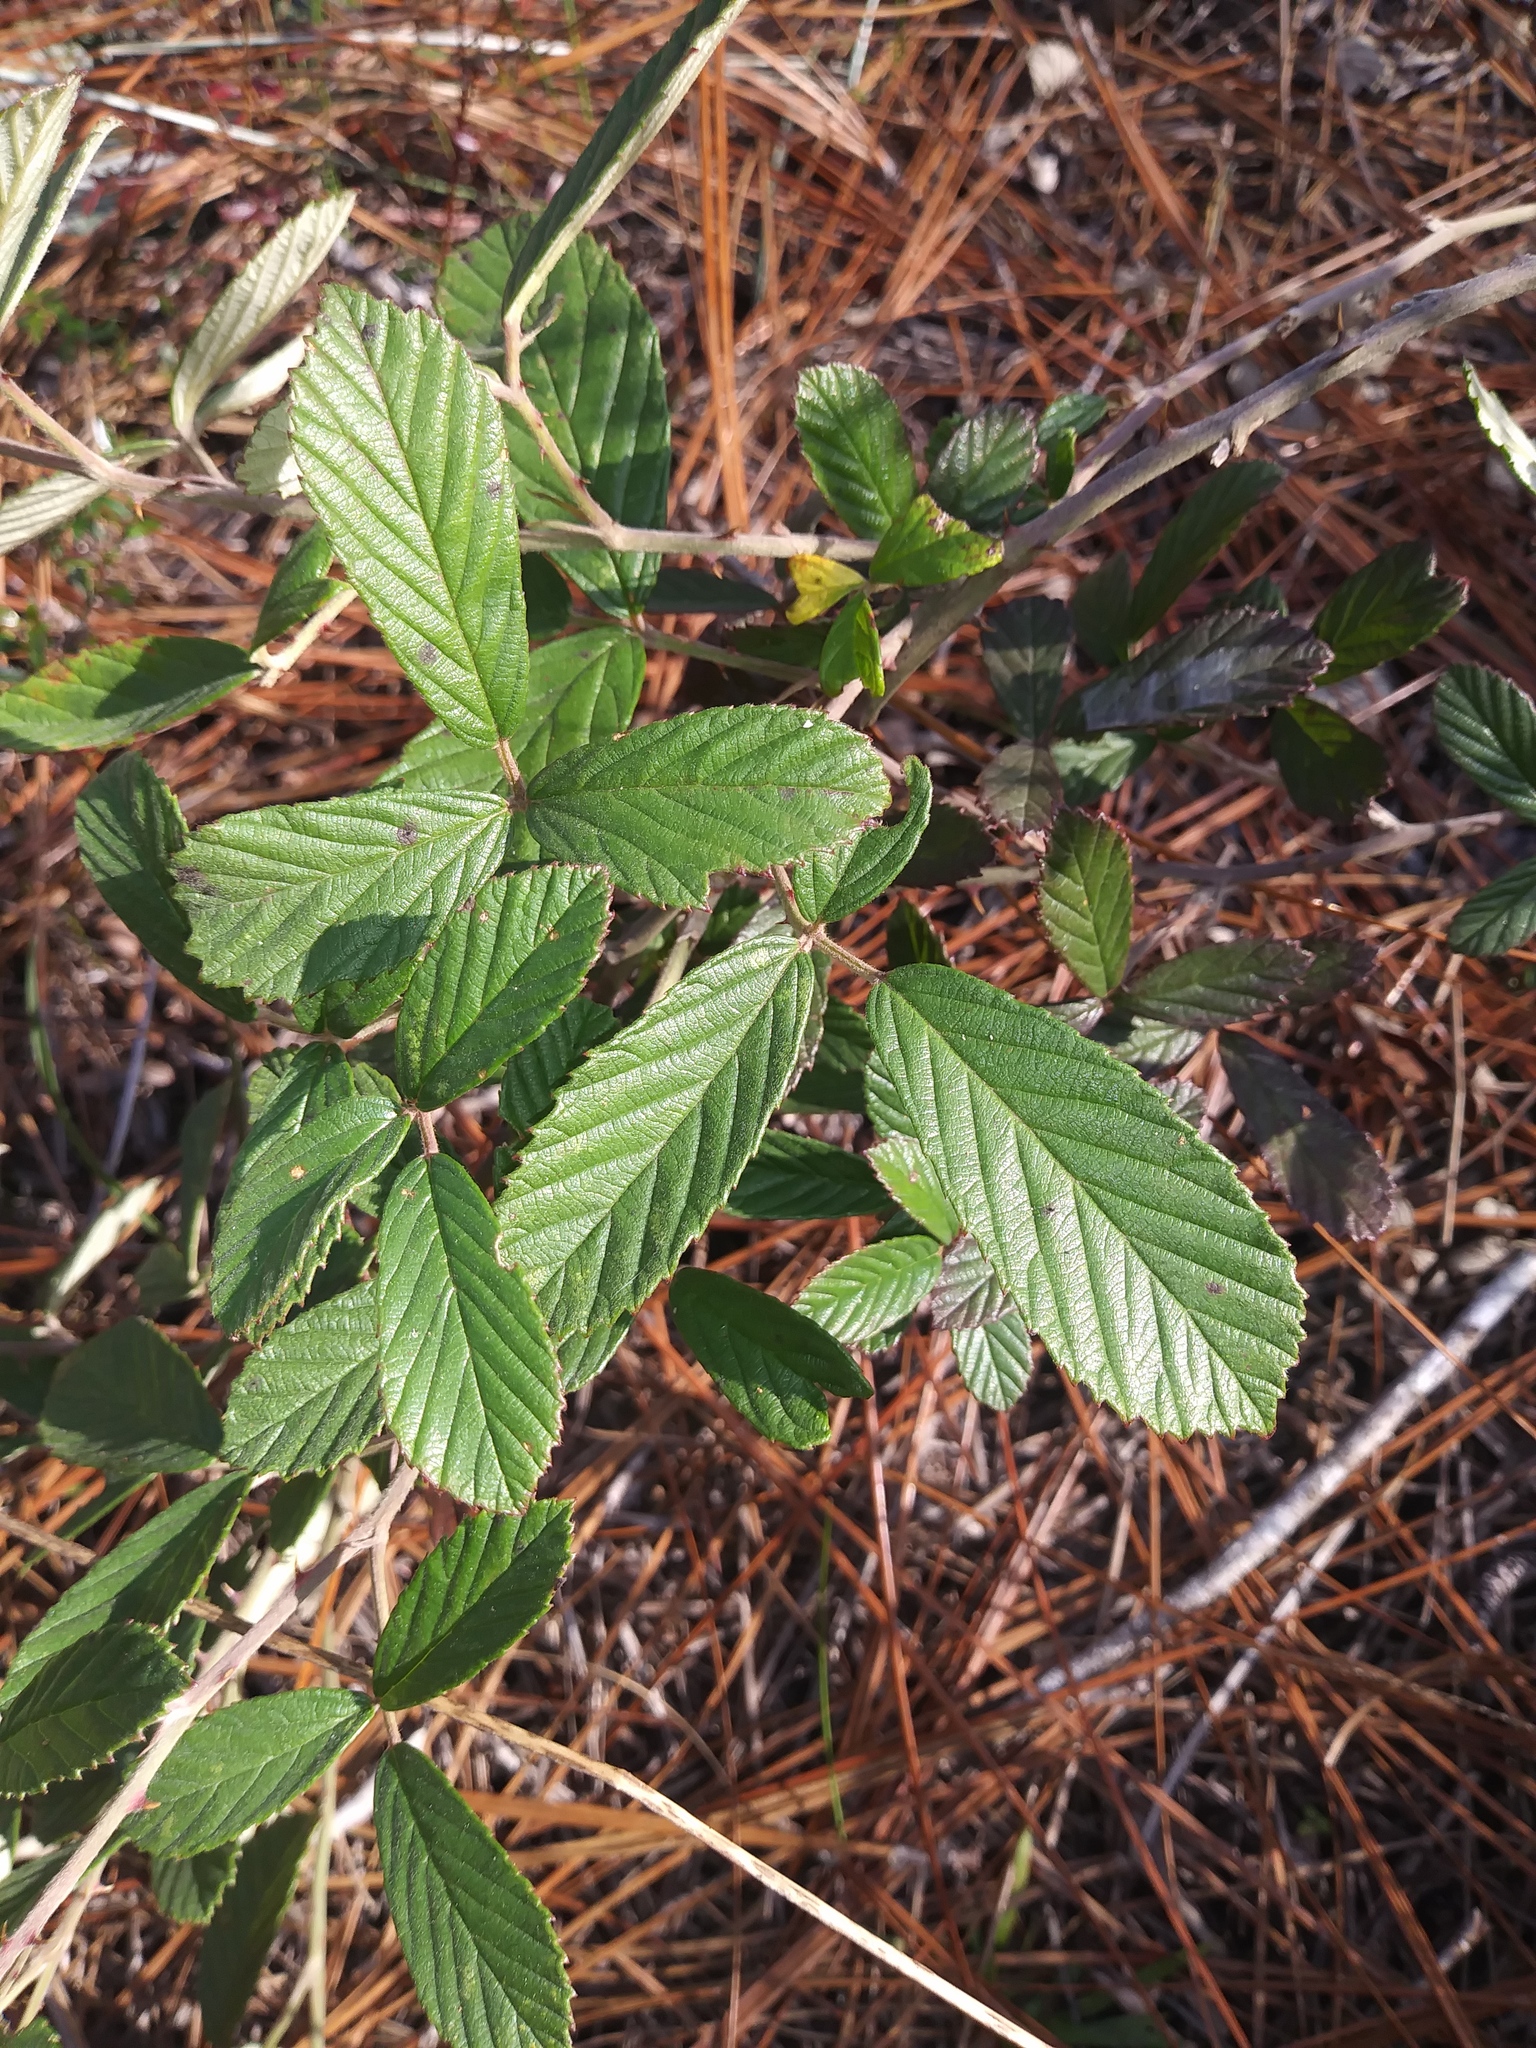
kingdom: Plantae
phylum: Tracheophyta
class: Magnoliopsida
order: Rosales
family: Rosaceae
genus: Rubus
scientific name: Rubus cuneifolius
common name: American bramble
